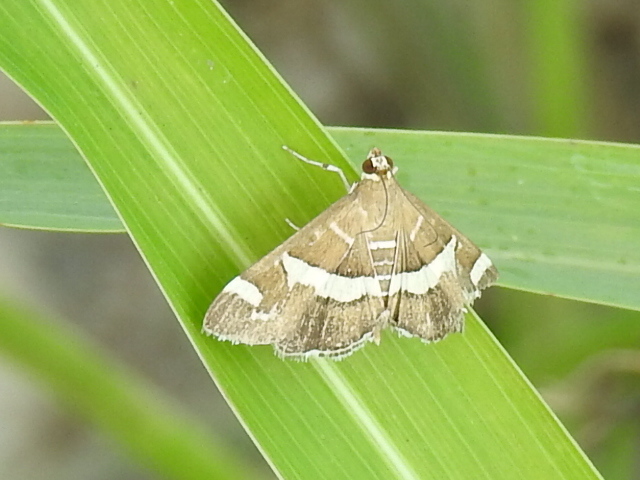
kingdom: Animalia
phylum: Arthropoda
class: Insecta
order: Lepidoptera
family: Crambidae
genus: Spoladea
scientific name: Spoladea recurvalis
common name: Beet webworm moth
